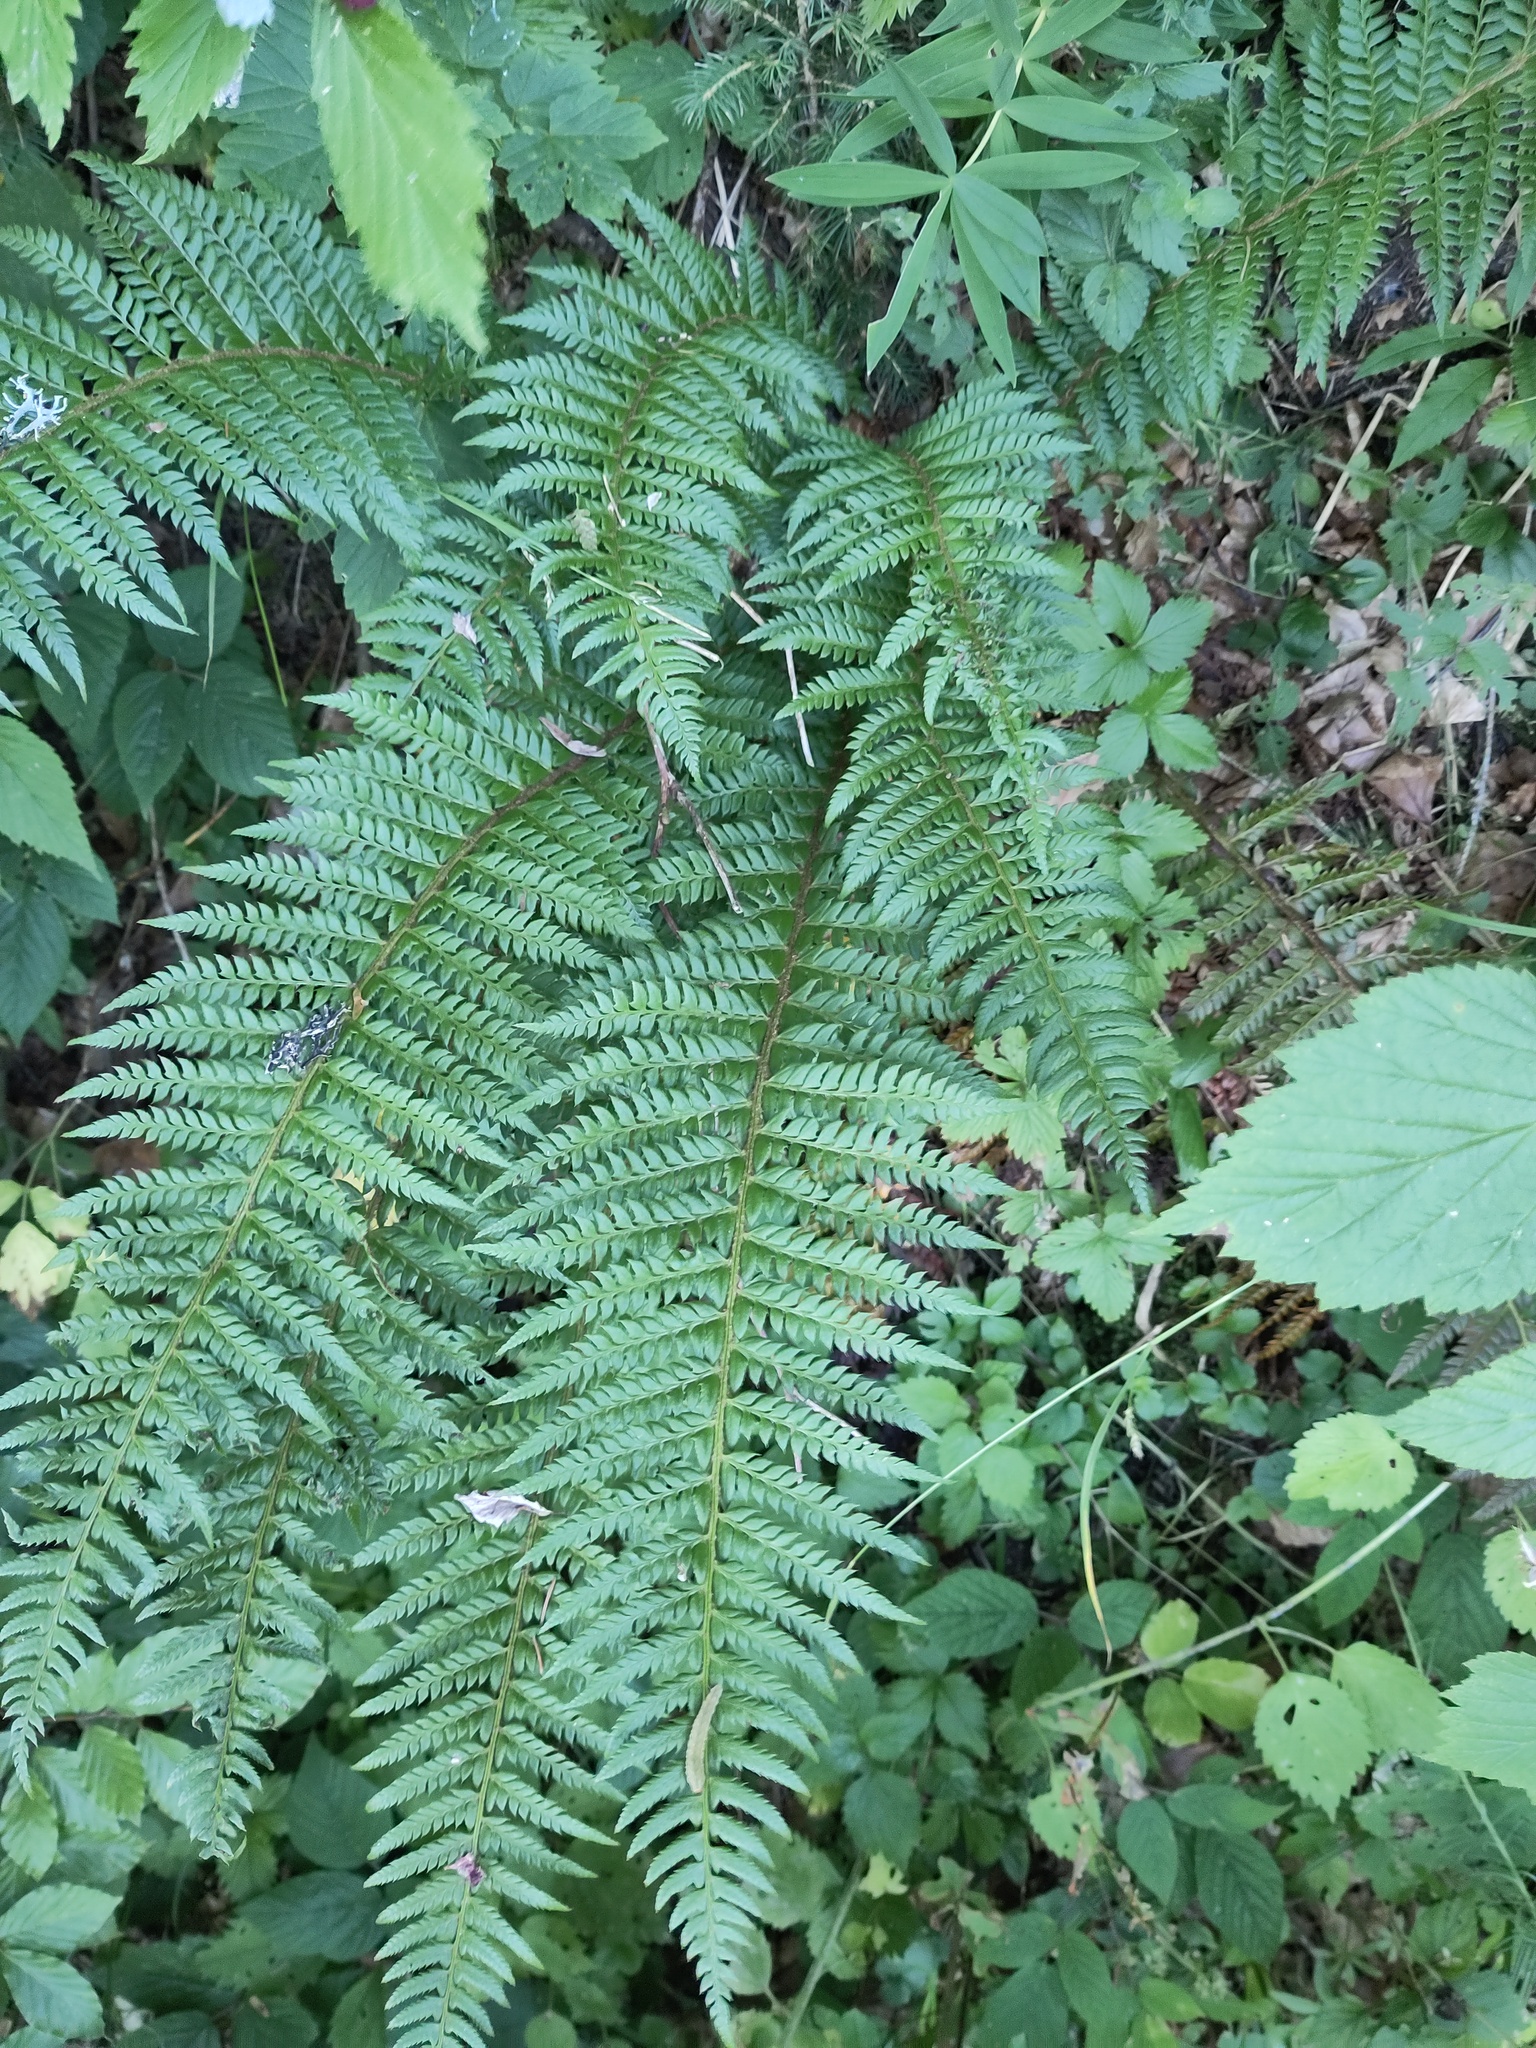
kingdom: Plantae
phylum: Tracheophyta
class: Polypodiopsida
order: Polypodiales
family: Dryopteridaceae
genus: Polystichum
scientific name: Polystichum aculeatum
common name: Hard shield-fern
